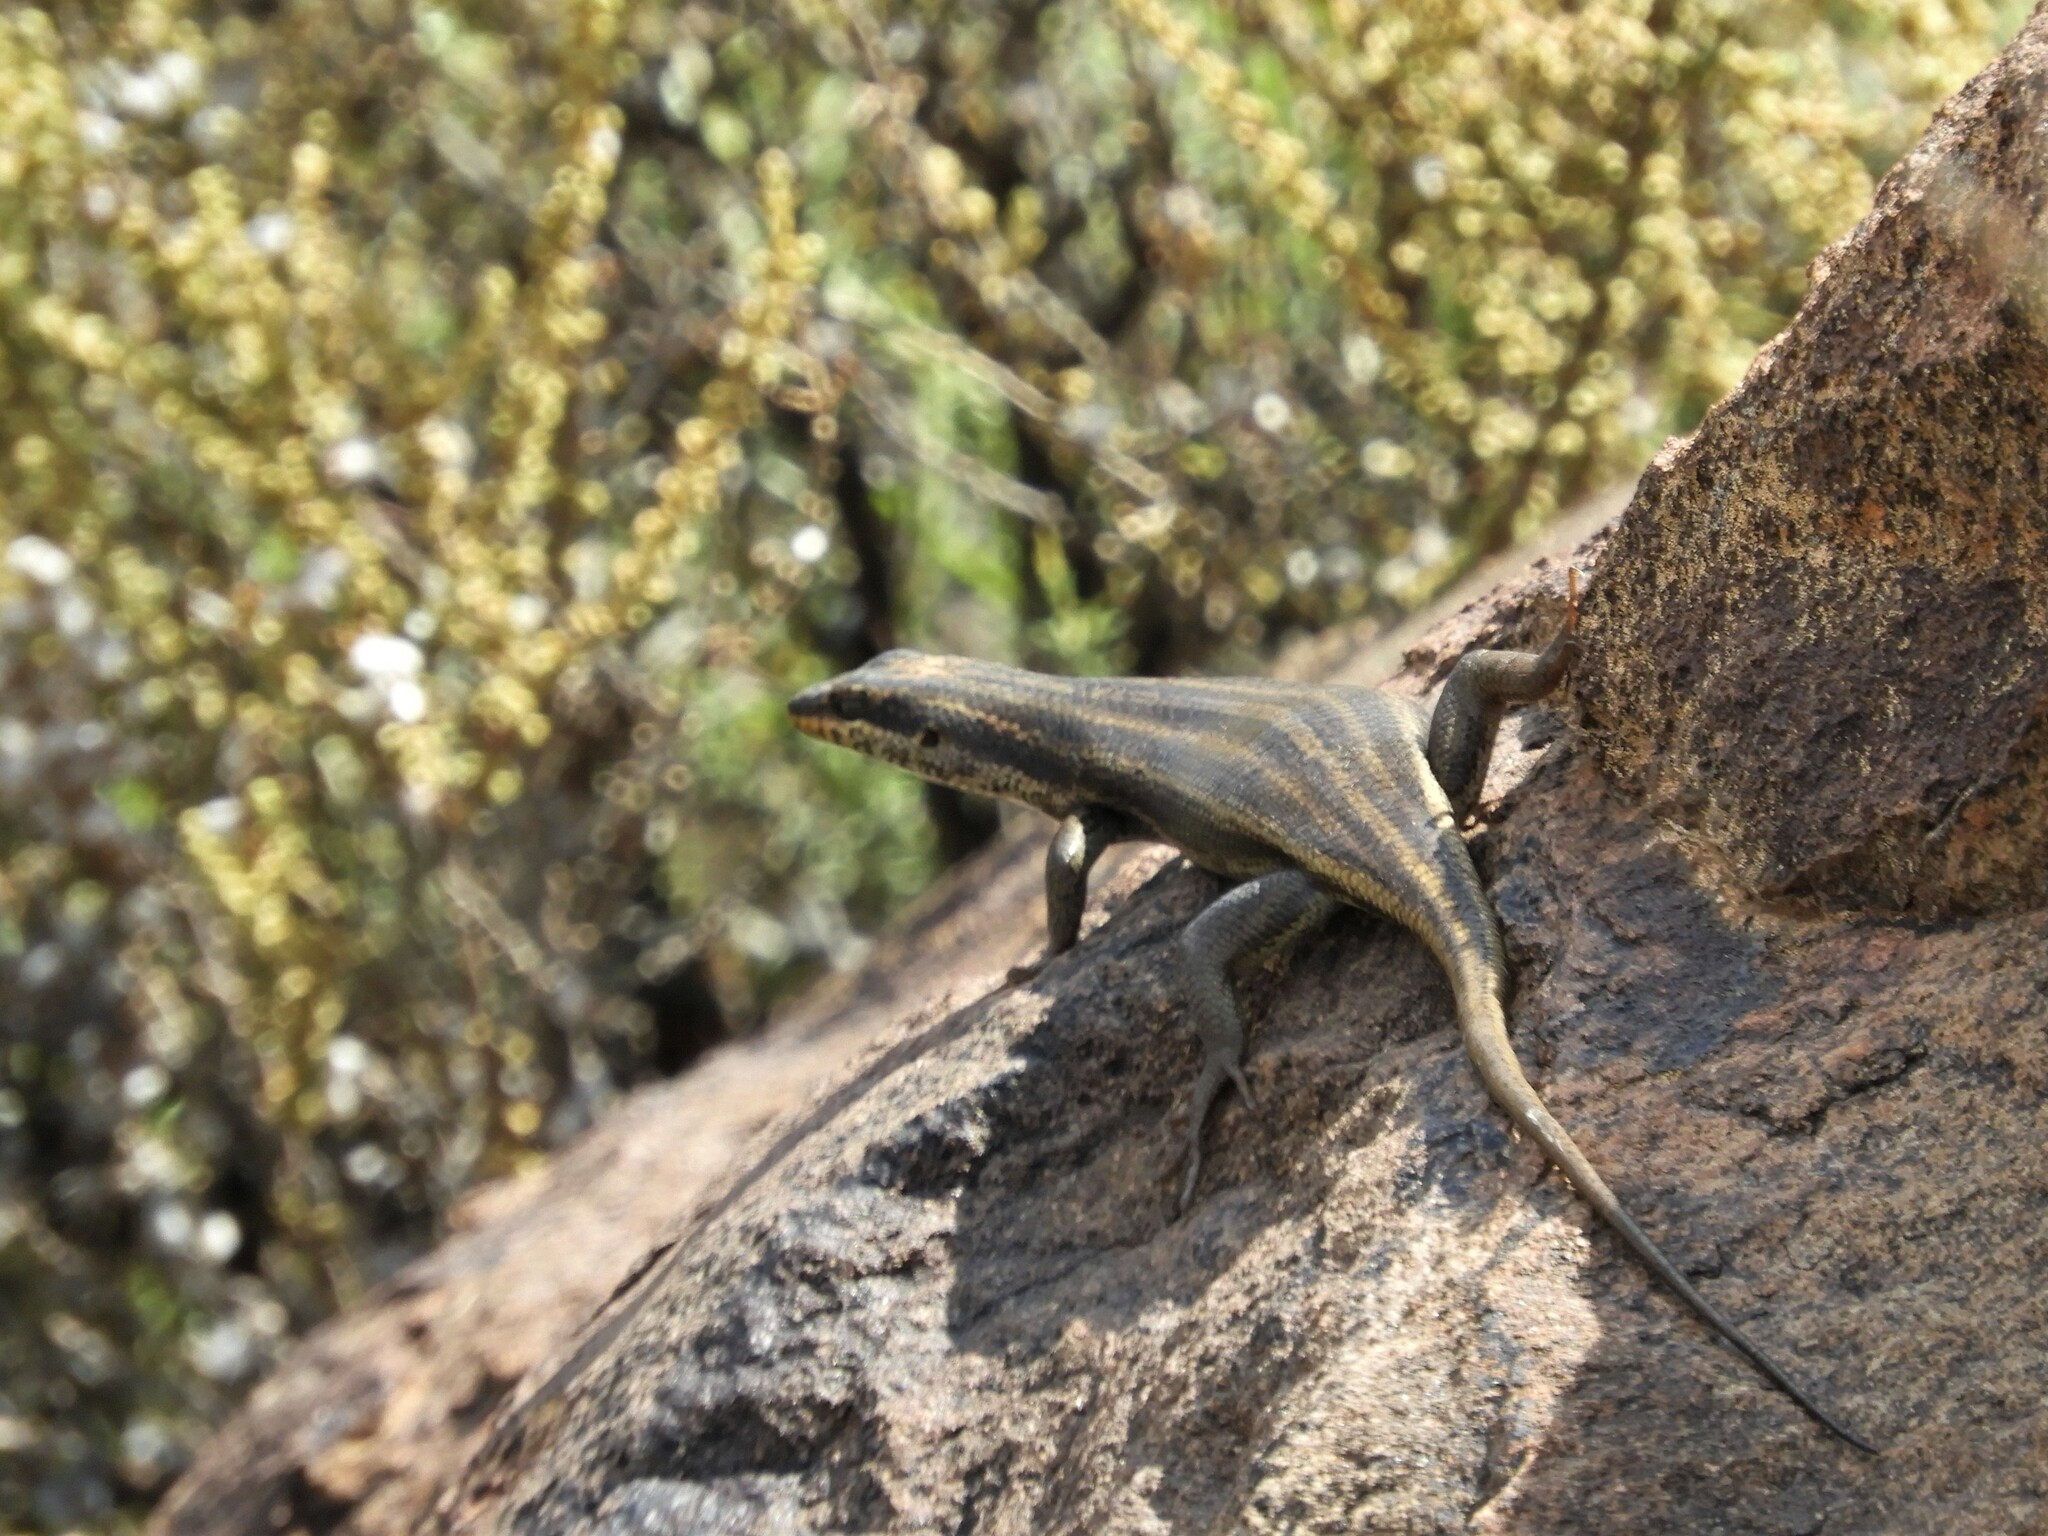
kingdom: Animalia
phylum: Chordata
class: Squamata
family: Scincidae
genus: Trachylepis
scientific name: Trachylepis sulcata
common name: Western rock skink
